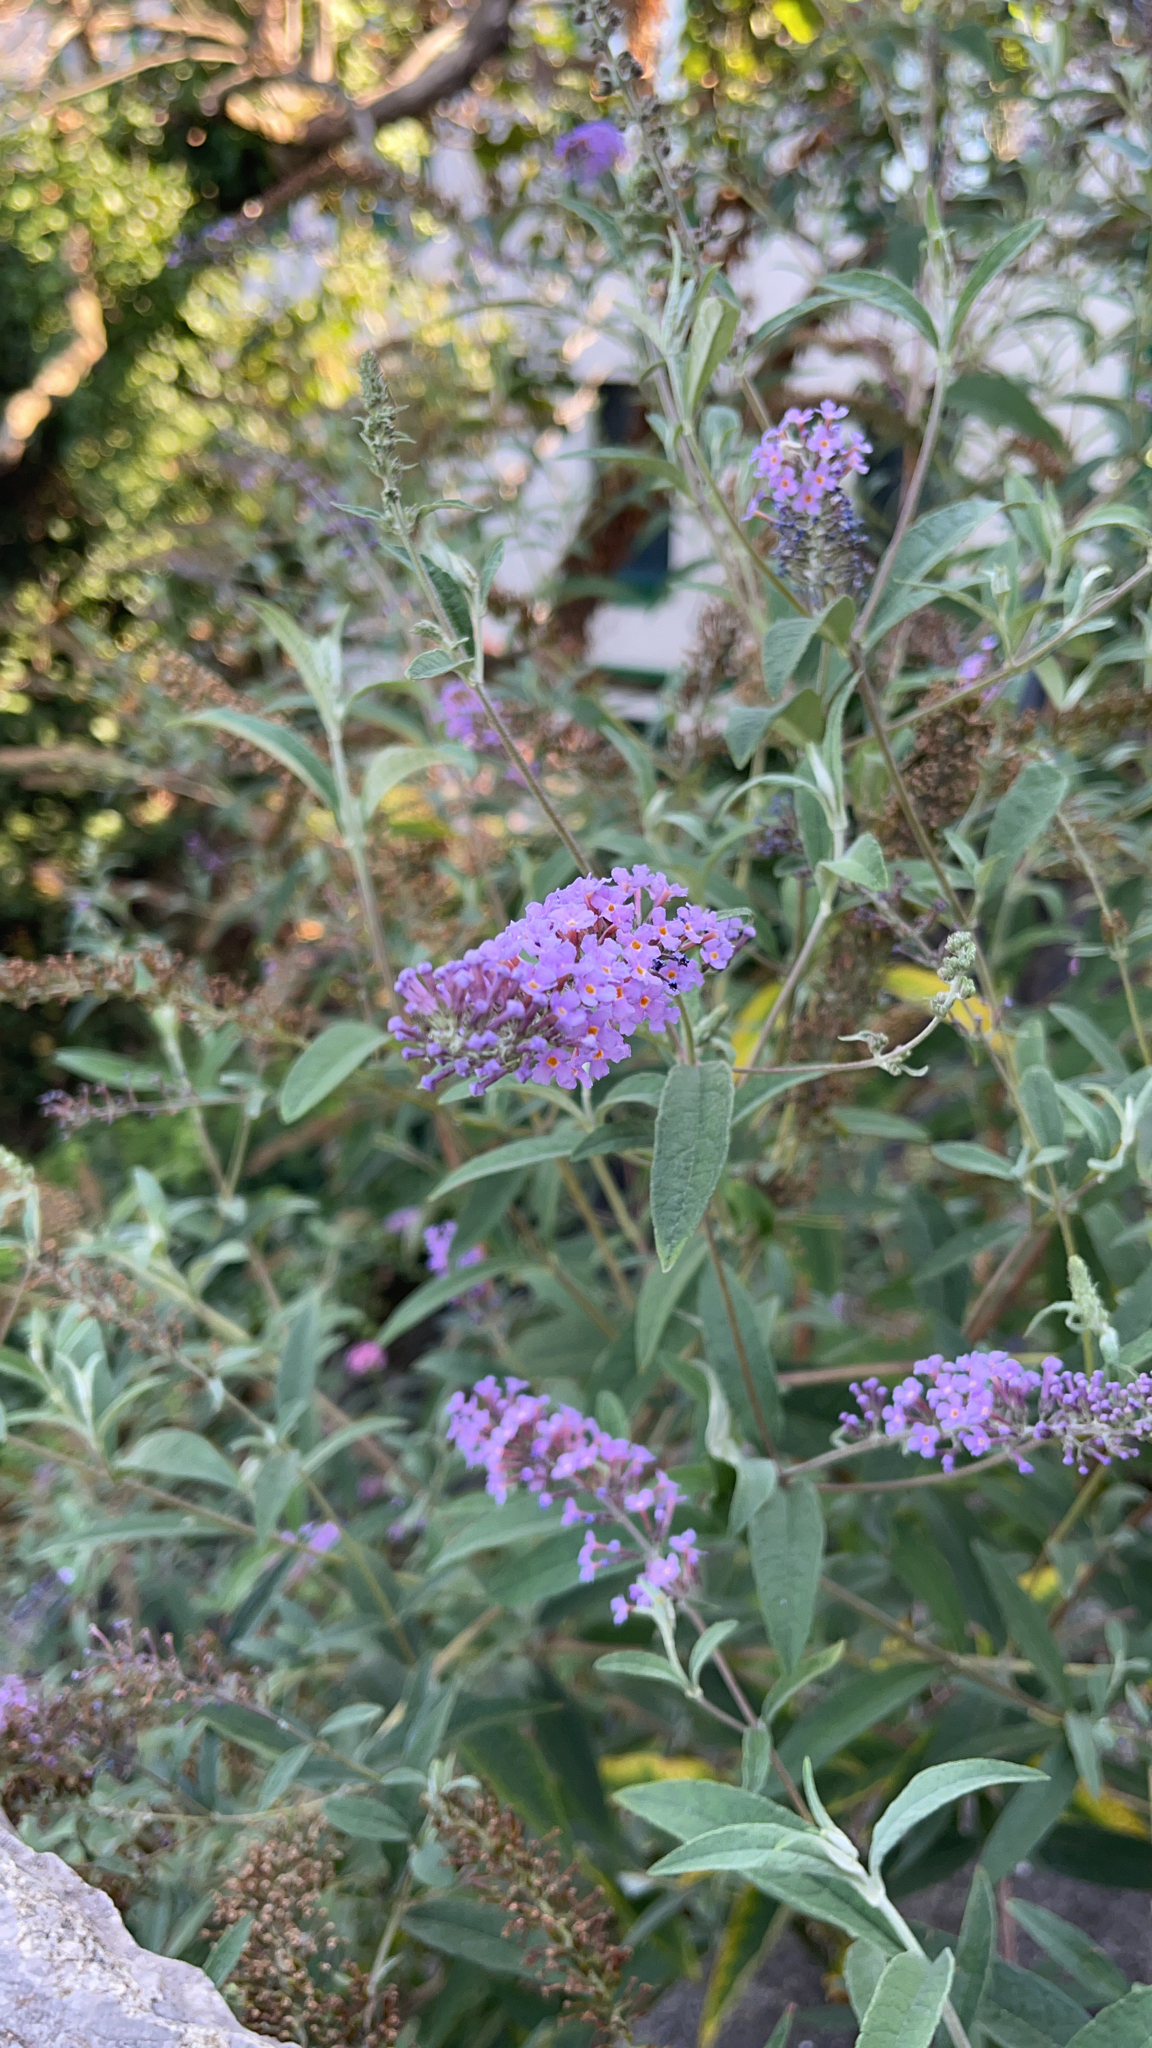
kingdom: Plantae
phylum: Tracheophyta
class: Magnoliopsida
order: Lamiales
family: Scrophulariaceae
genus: Buddleja
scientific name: Buddleja davidii
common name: Butterfly-bush
